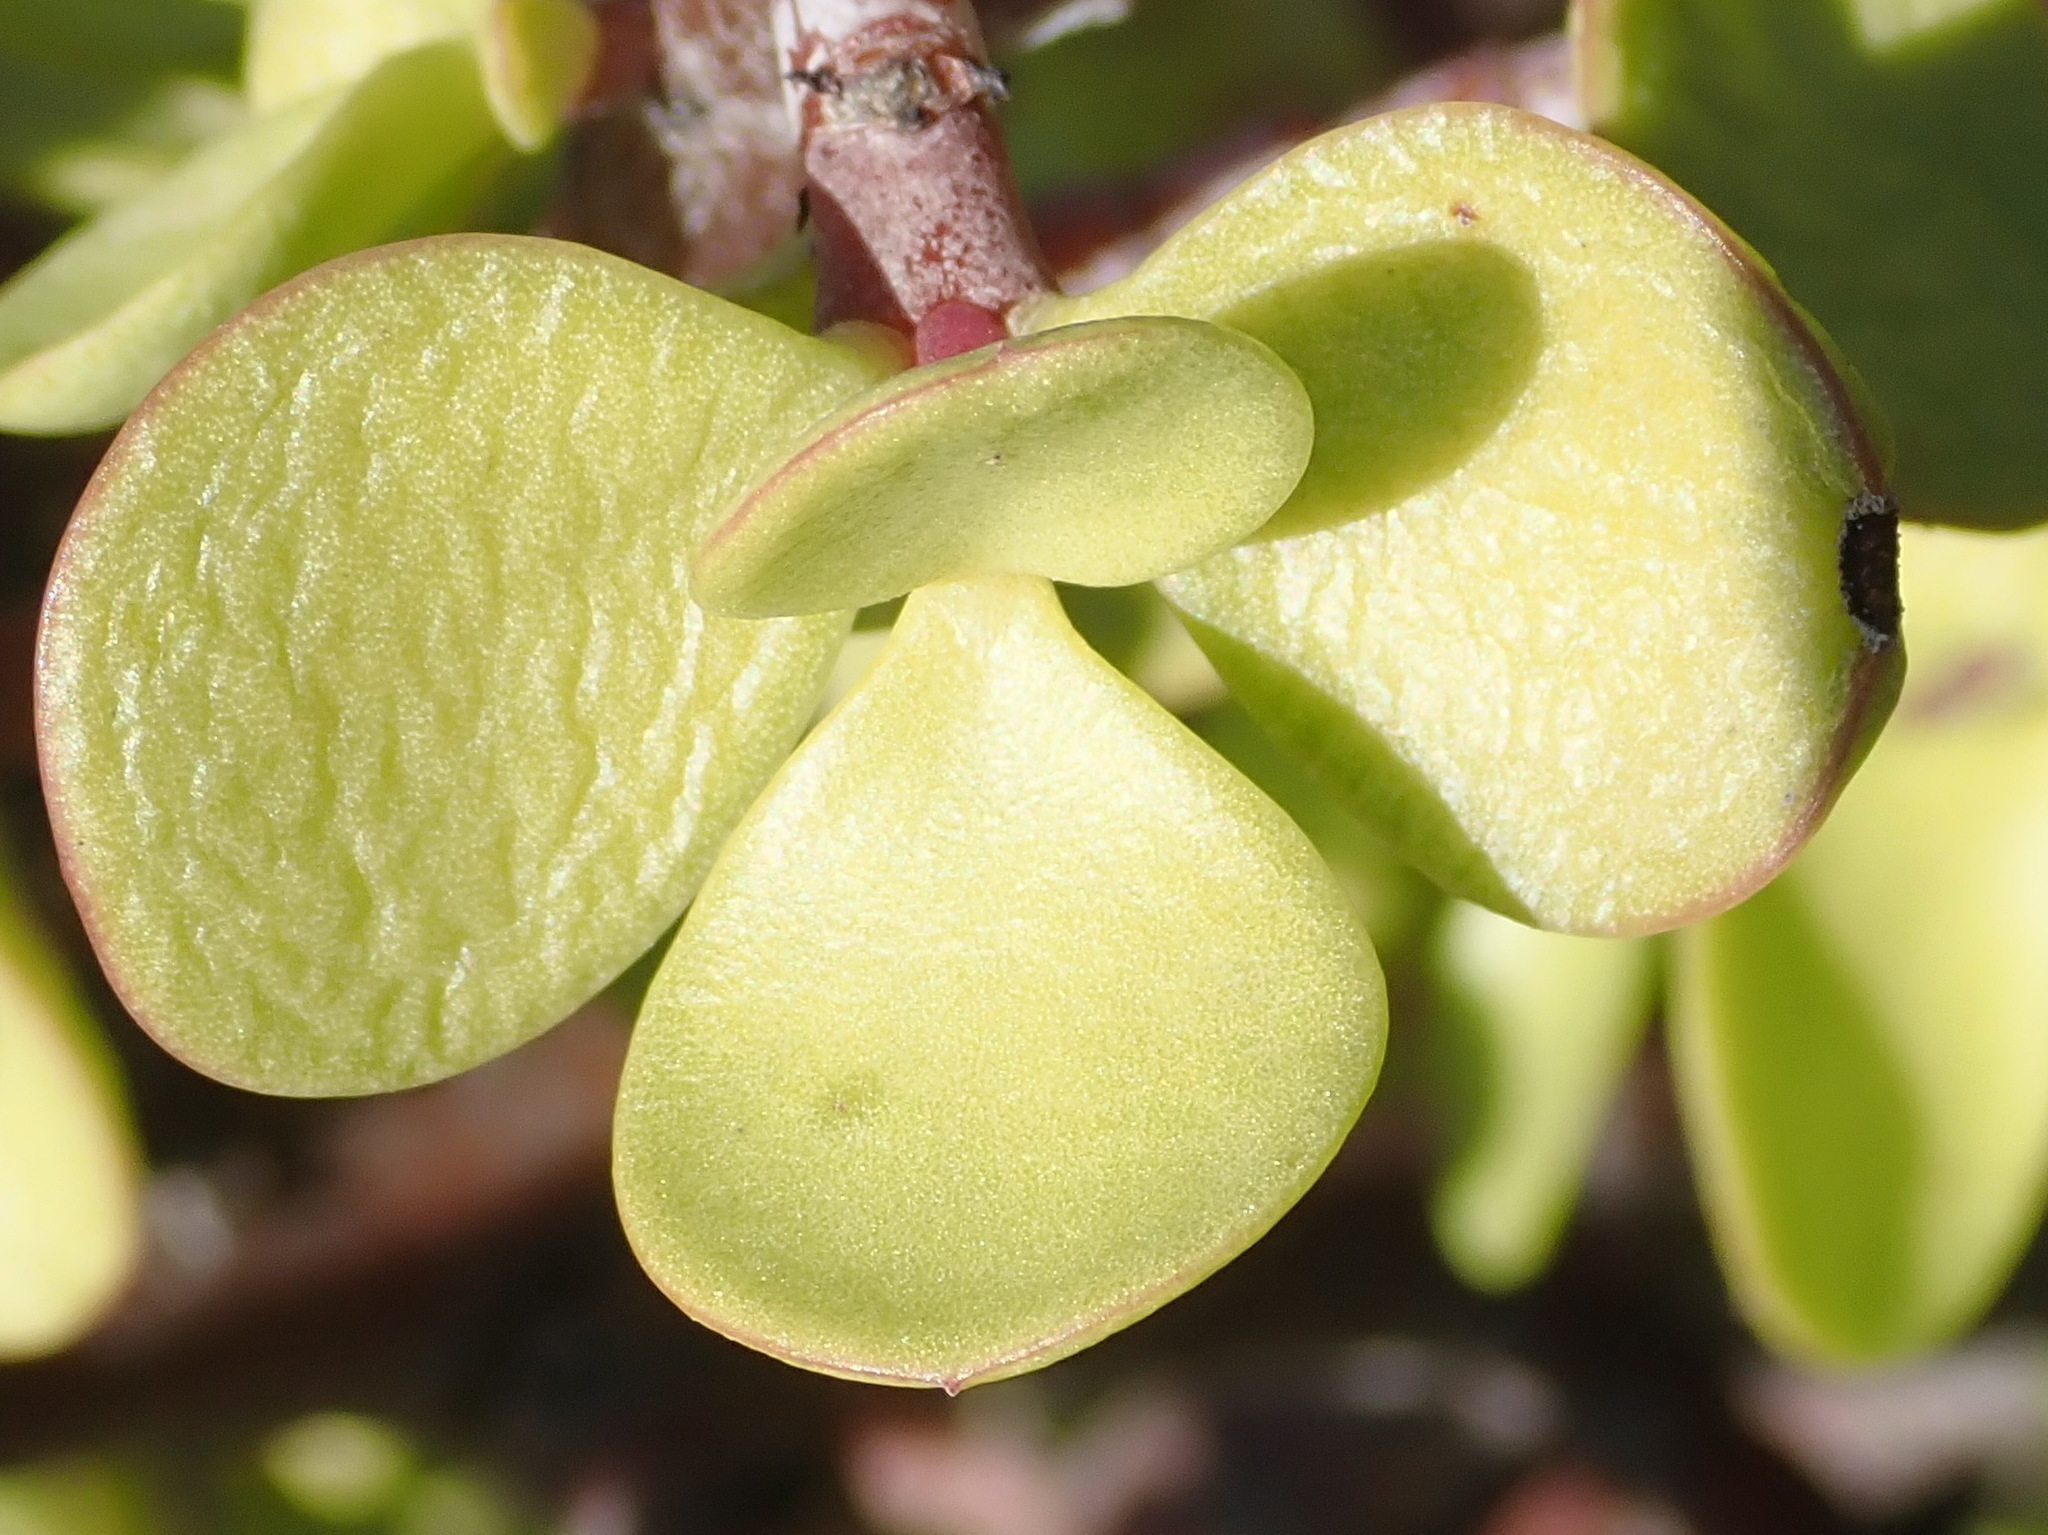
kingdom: Plantae
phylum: Tracheophyta
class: Magnoliopsida
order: Caryophyllales
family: Didiereaceae
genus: Portulacaria
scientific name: Portulacaria afra
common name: Elephant-bush
